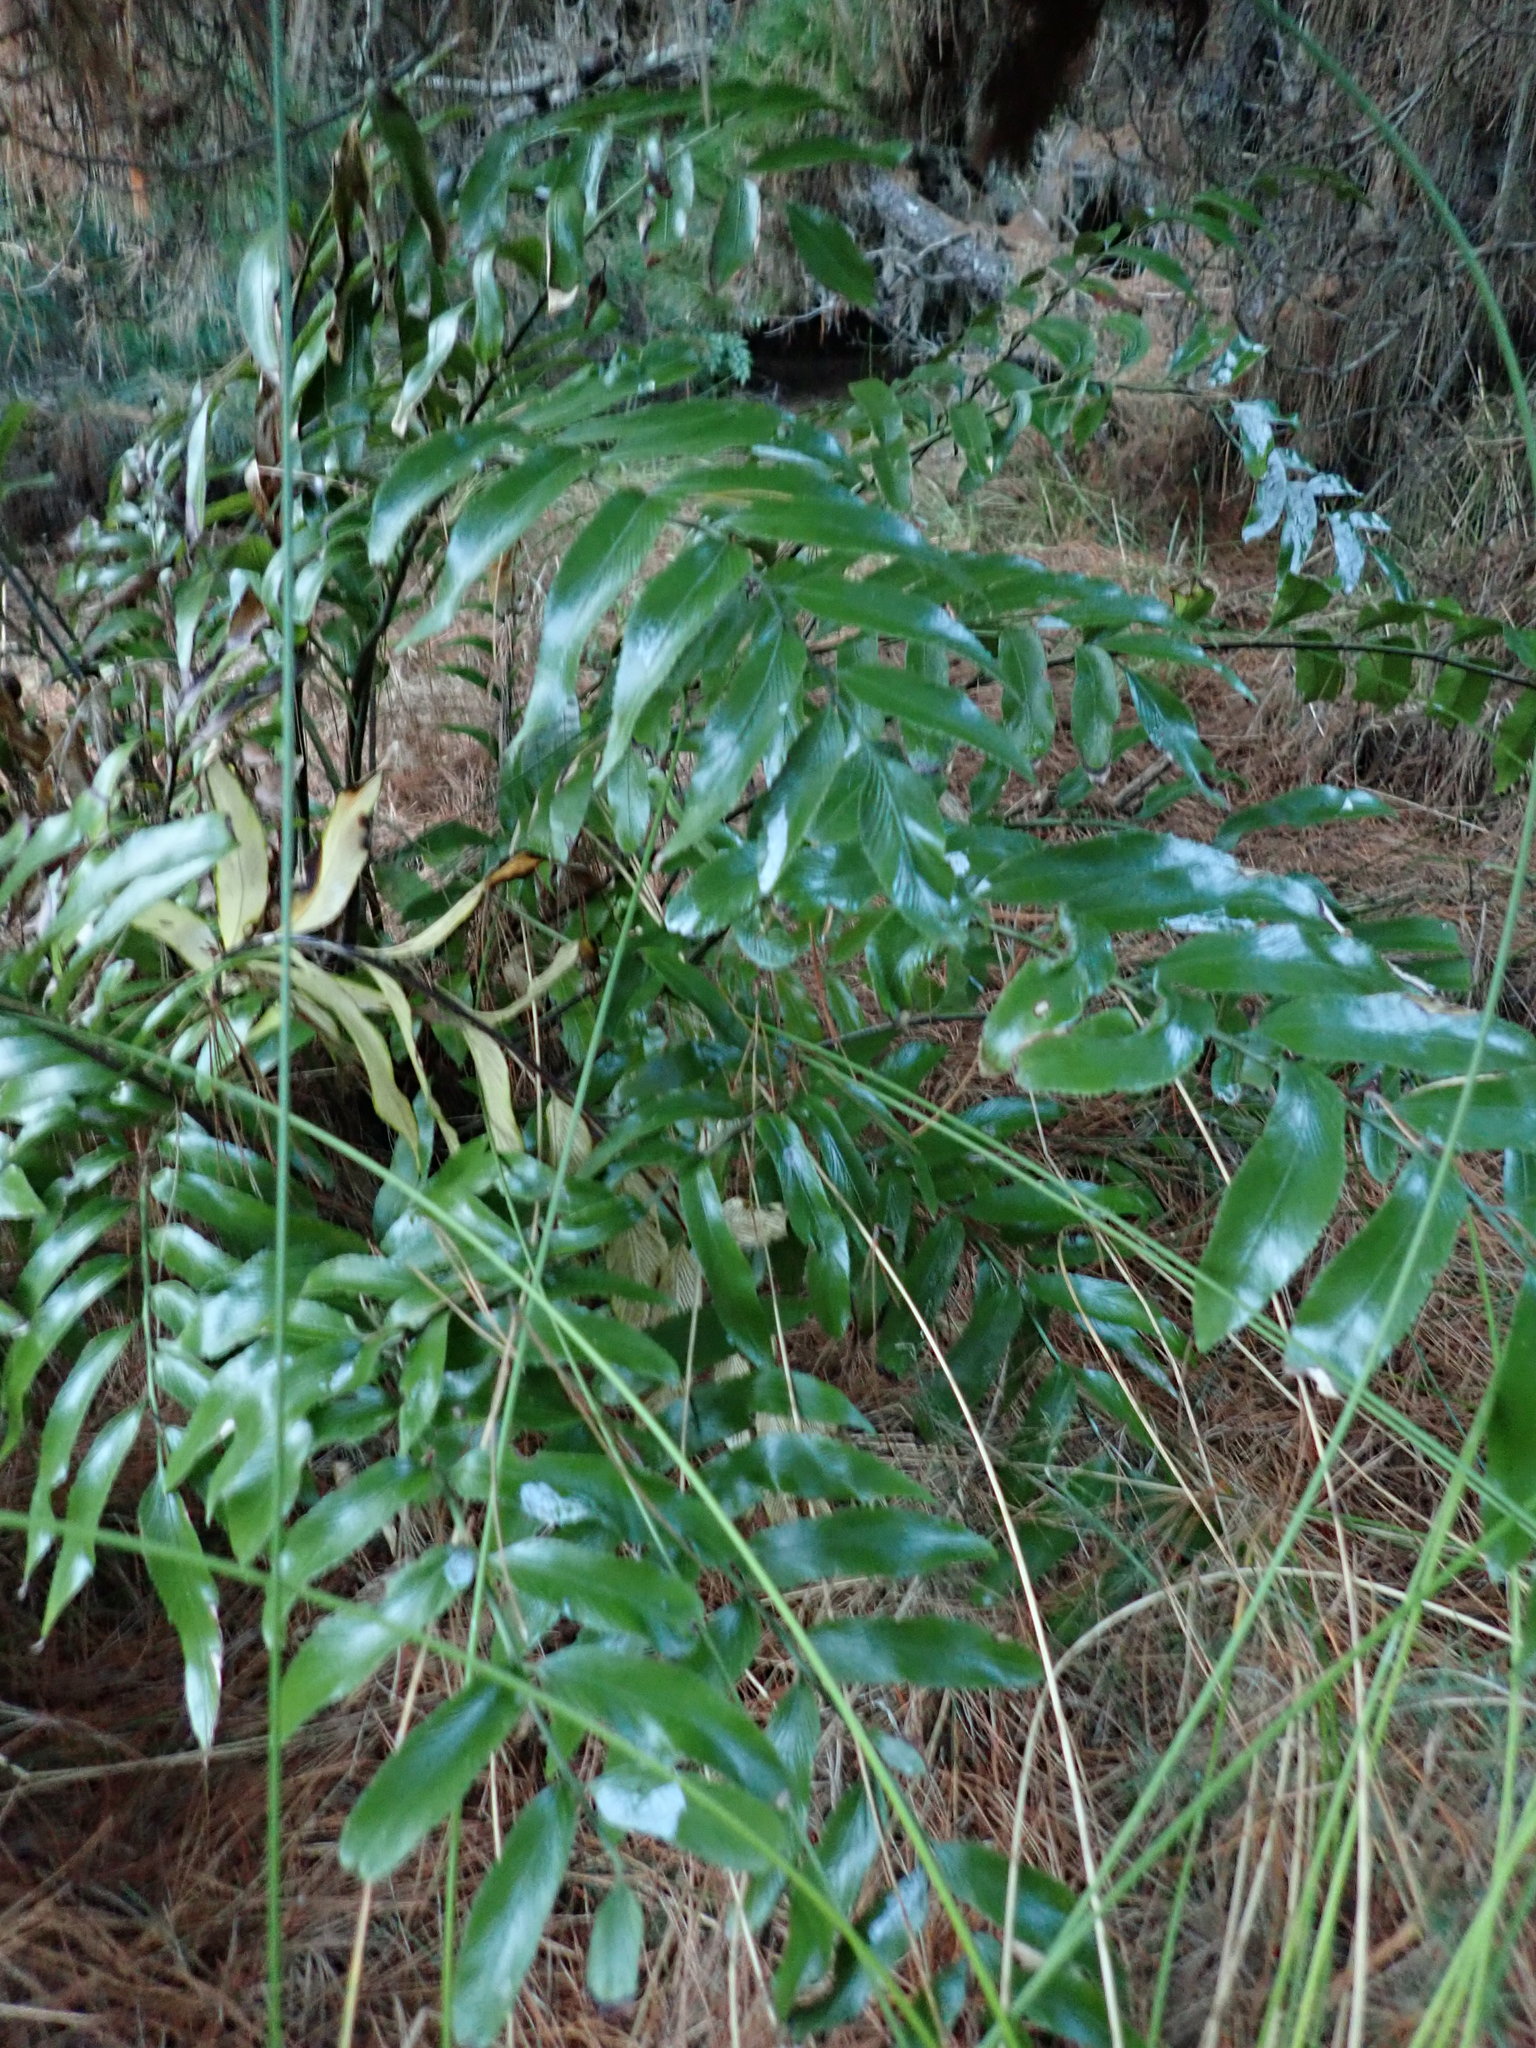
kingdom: Plantae
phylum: Tracheophyta
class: Polypodiopsida
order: Polypodiales
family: Aspleniaceae
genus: Asplenium
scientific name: Asplenium oblongifolium
